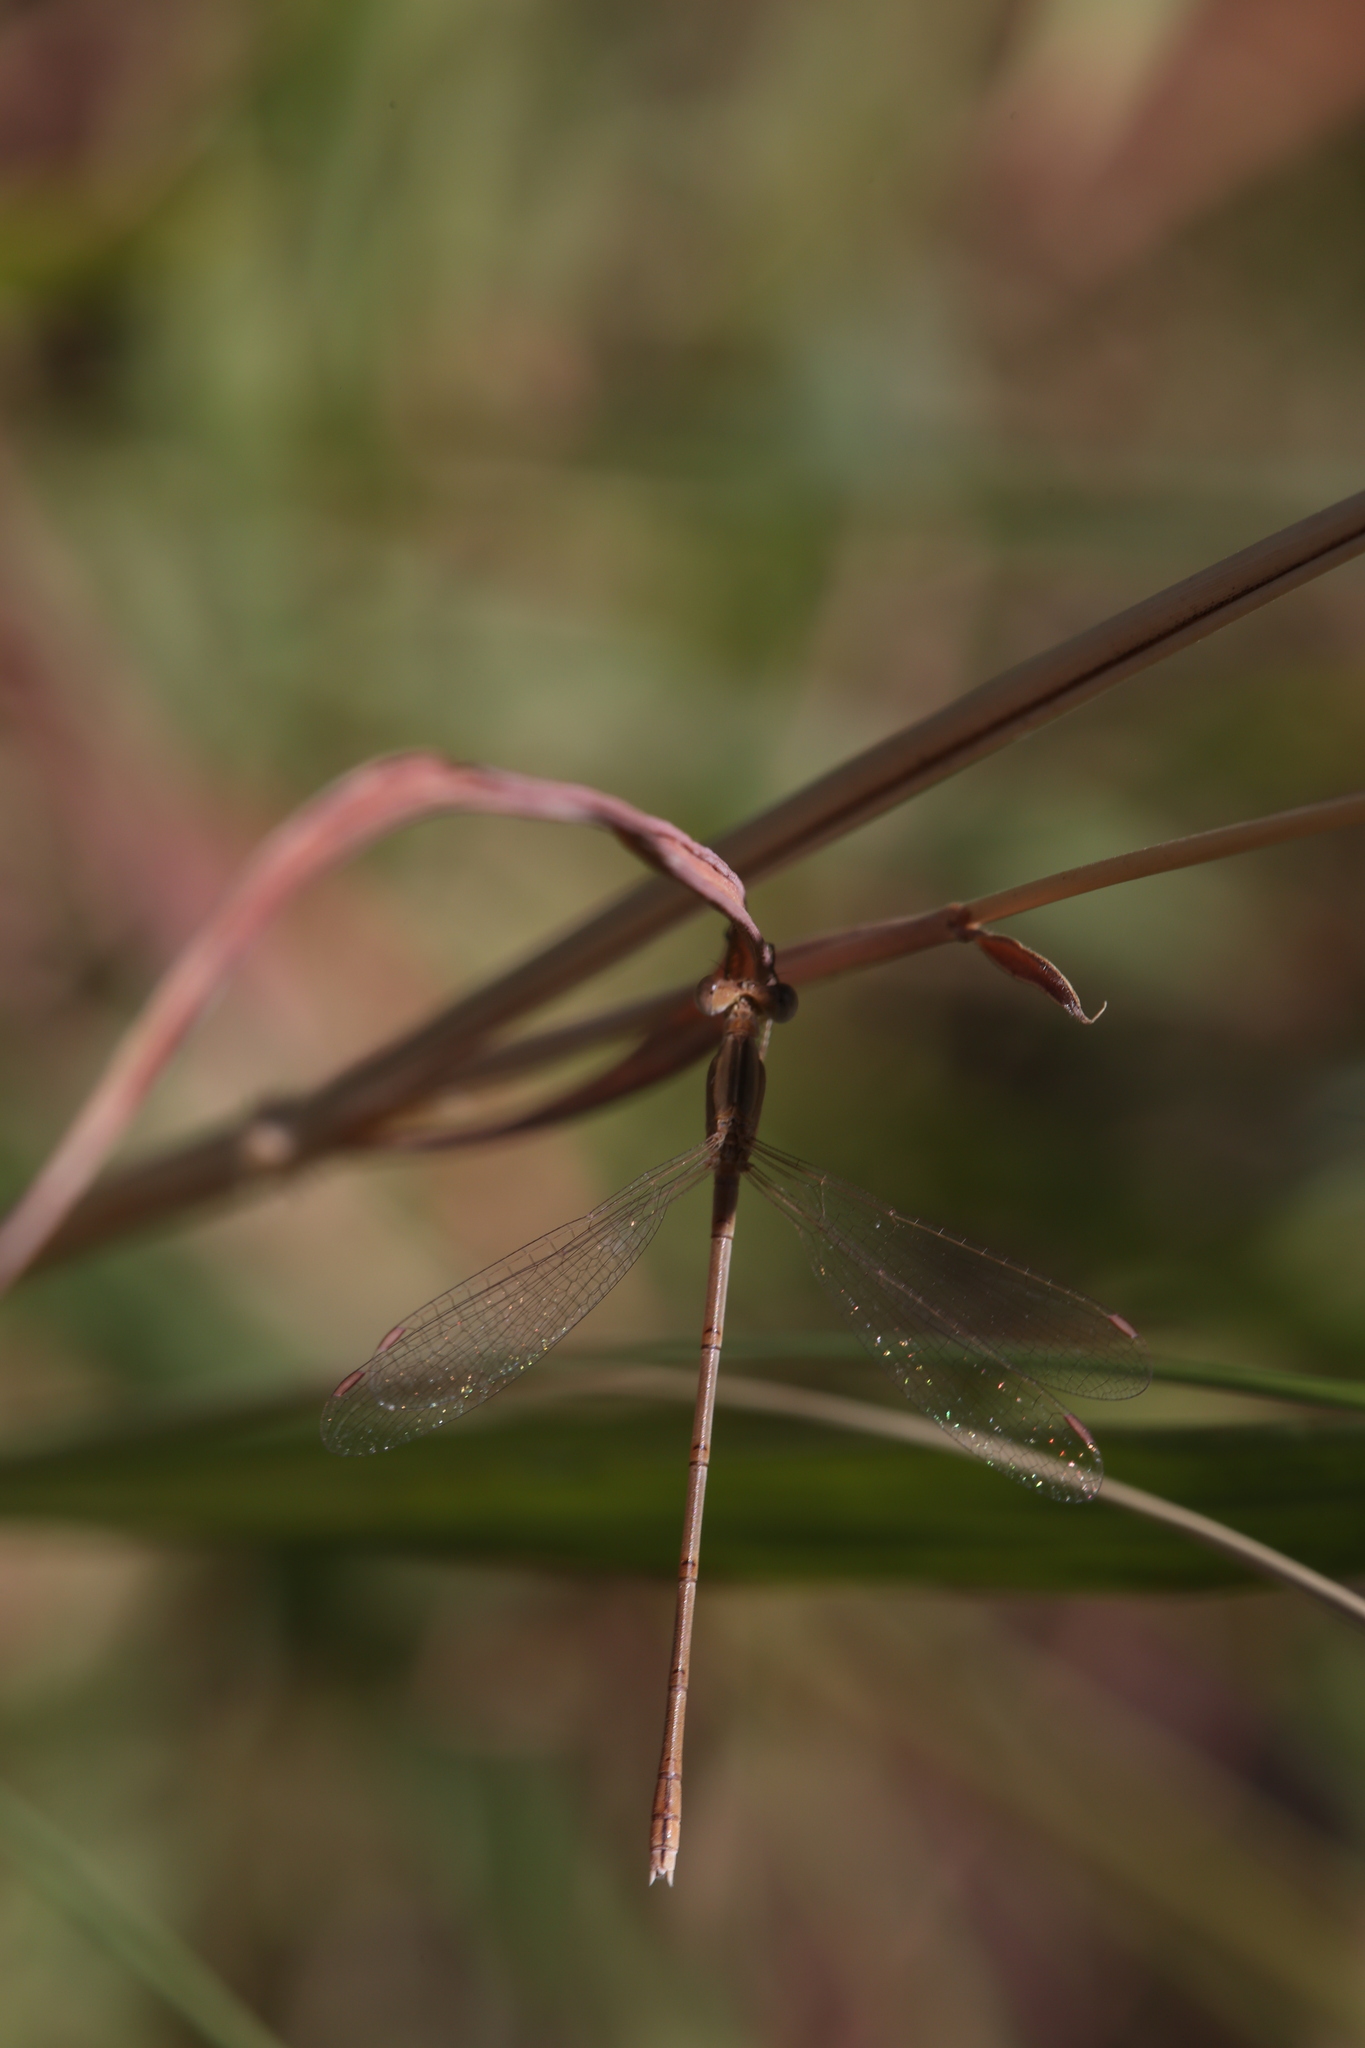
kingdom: Animalia
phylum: Arthropoda
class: Insecta
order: Odonata
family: Lestidae
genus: Lestes
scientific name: Lestes concinnus
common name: Dusky spreadwing
